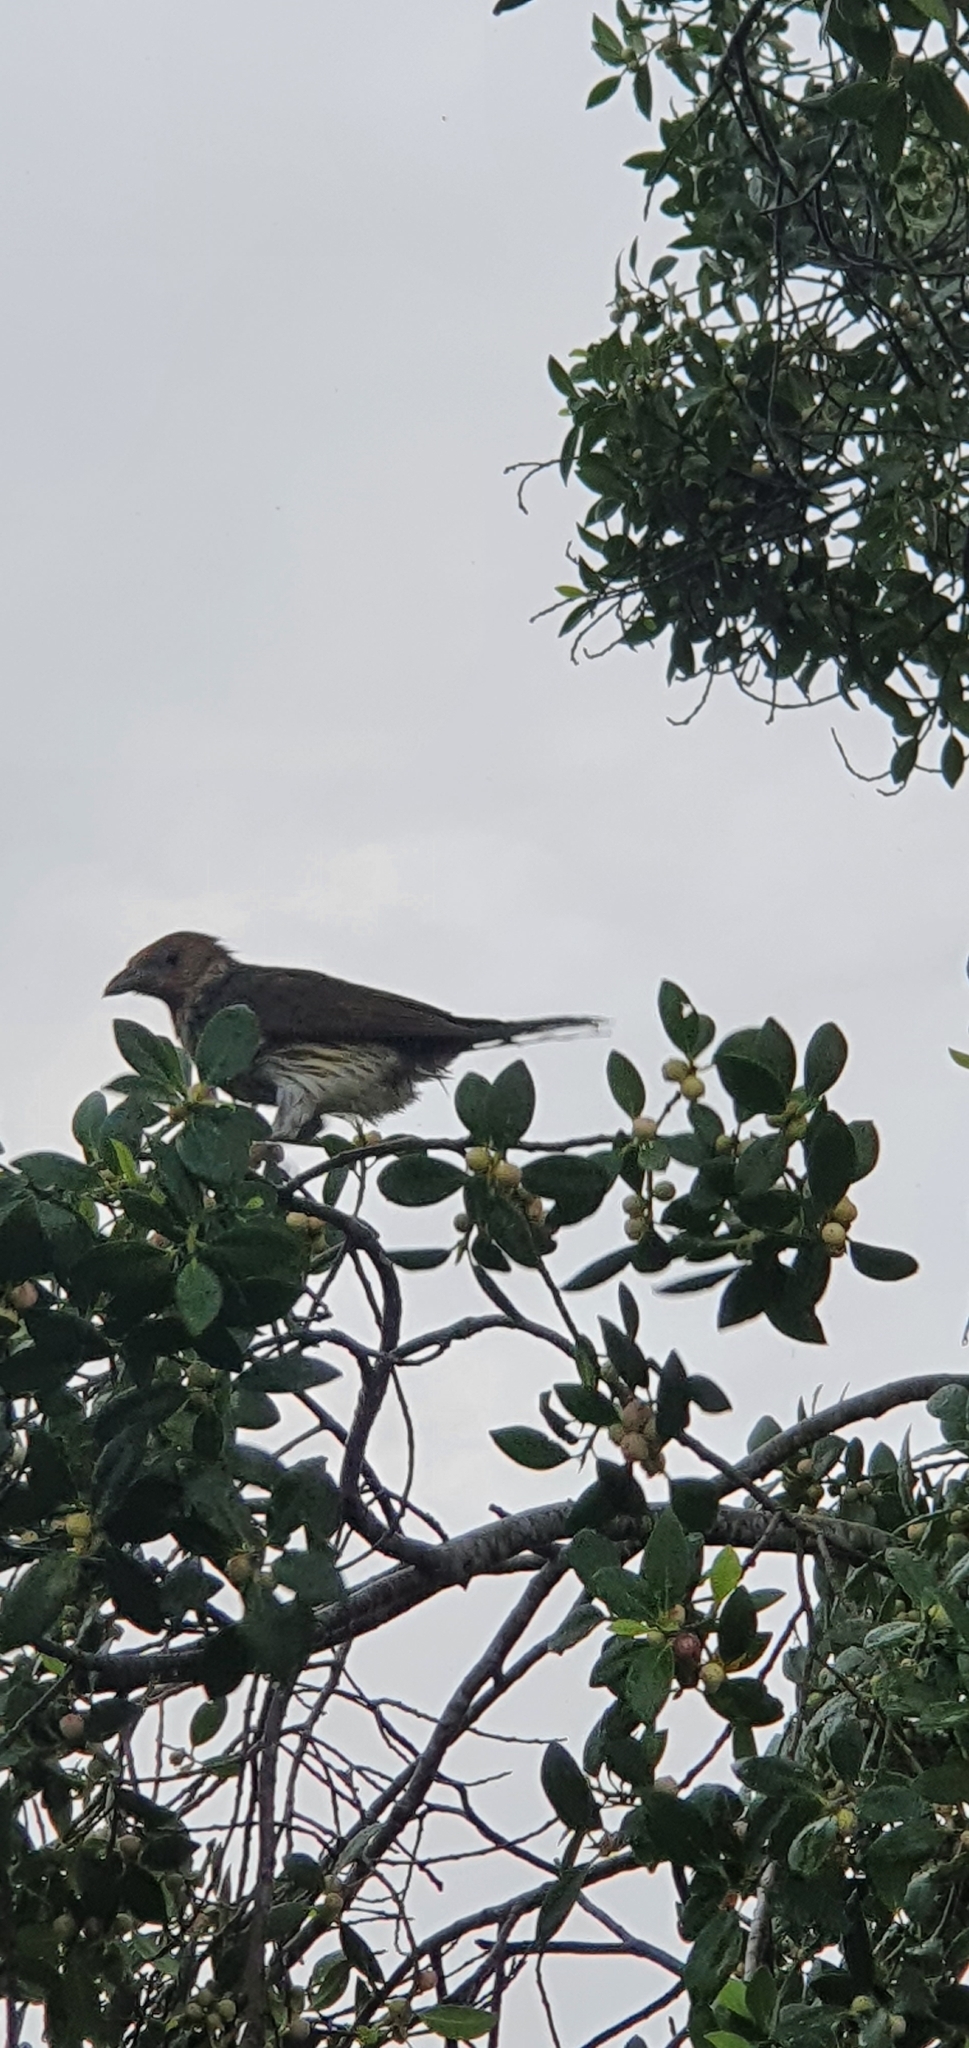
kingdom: Animalia
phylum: Chordata
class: Aves
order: Passeriformes
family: Oriolidae
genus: Sphecotheres
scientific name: Sphecotheres vieilloti
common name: Australasian figbird
